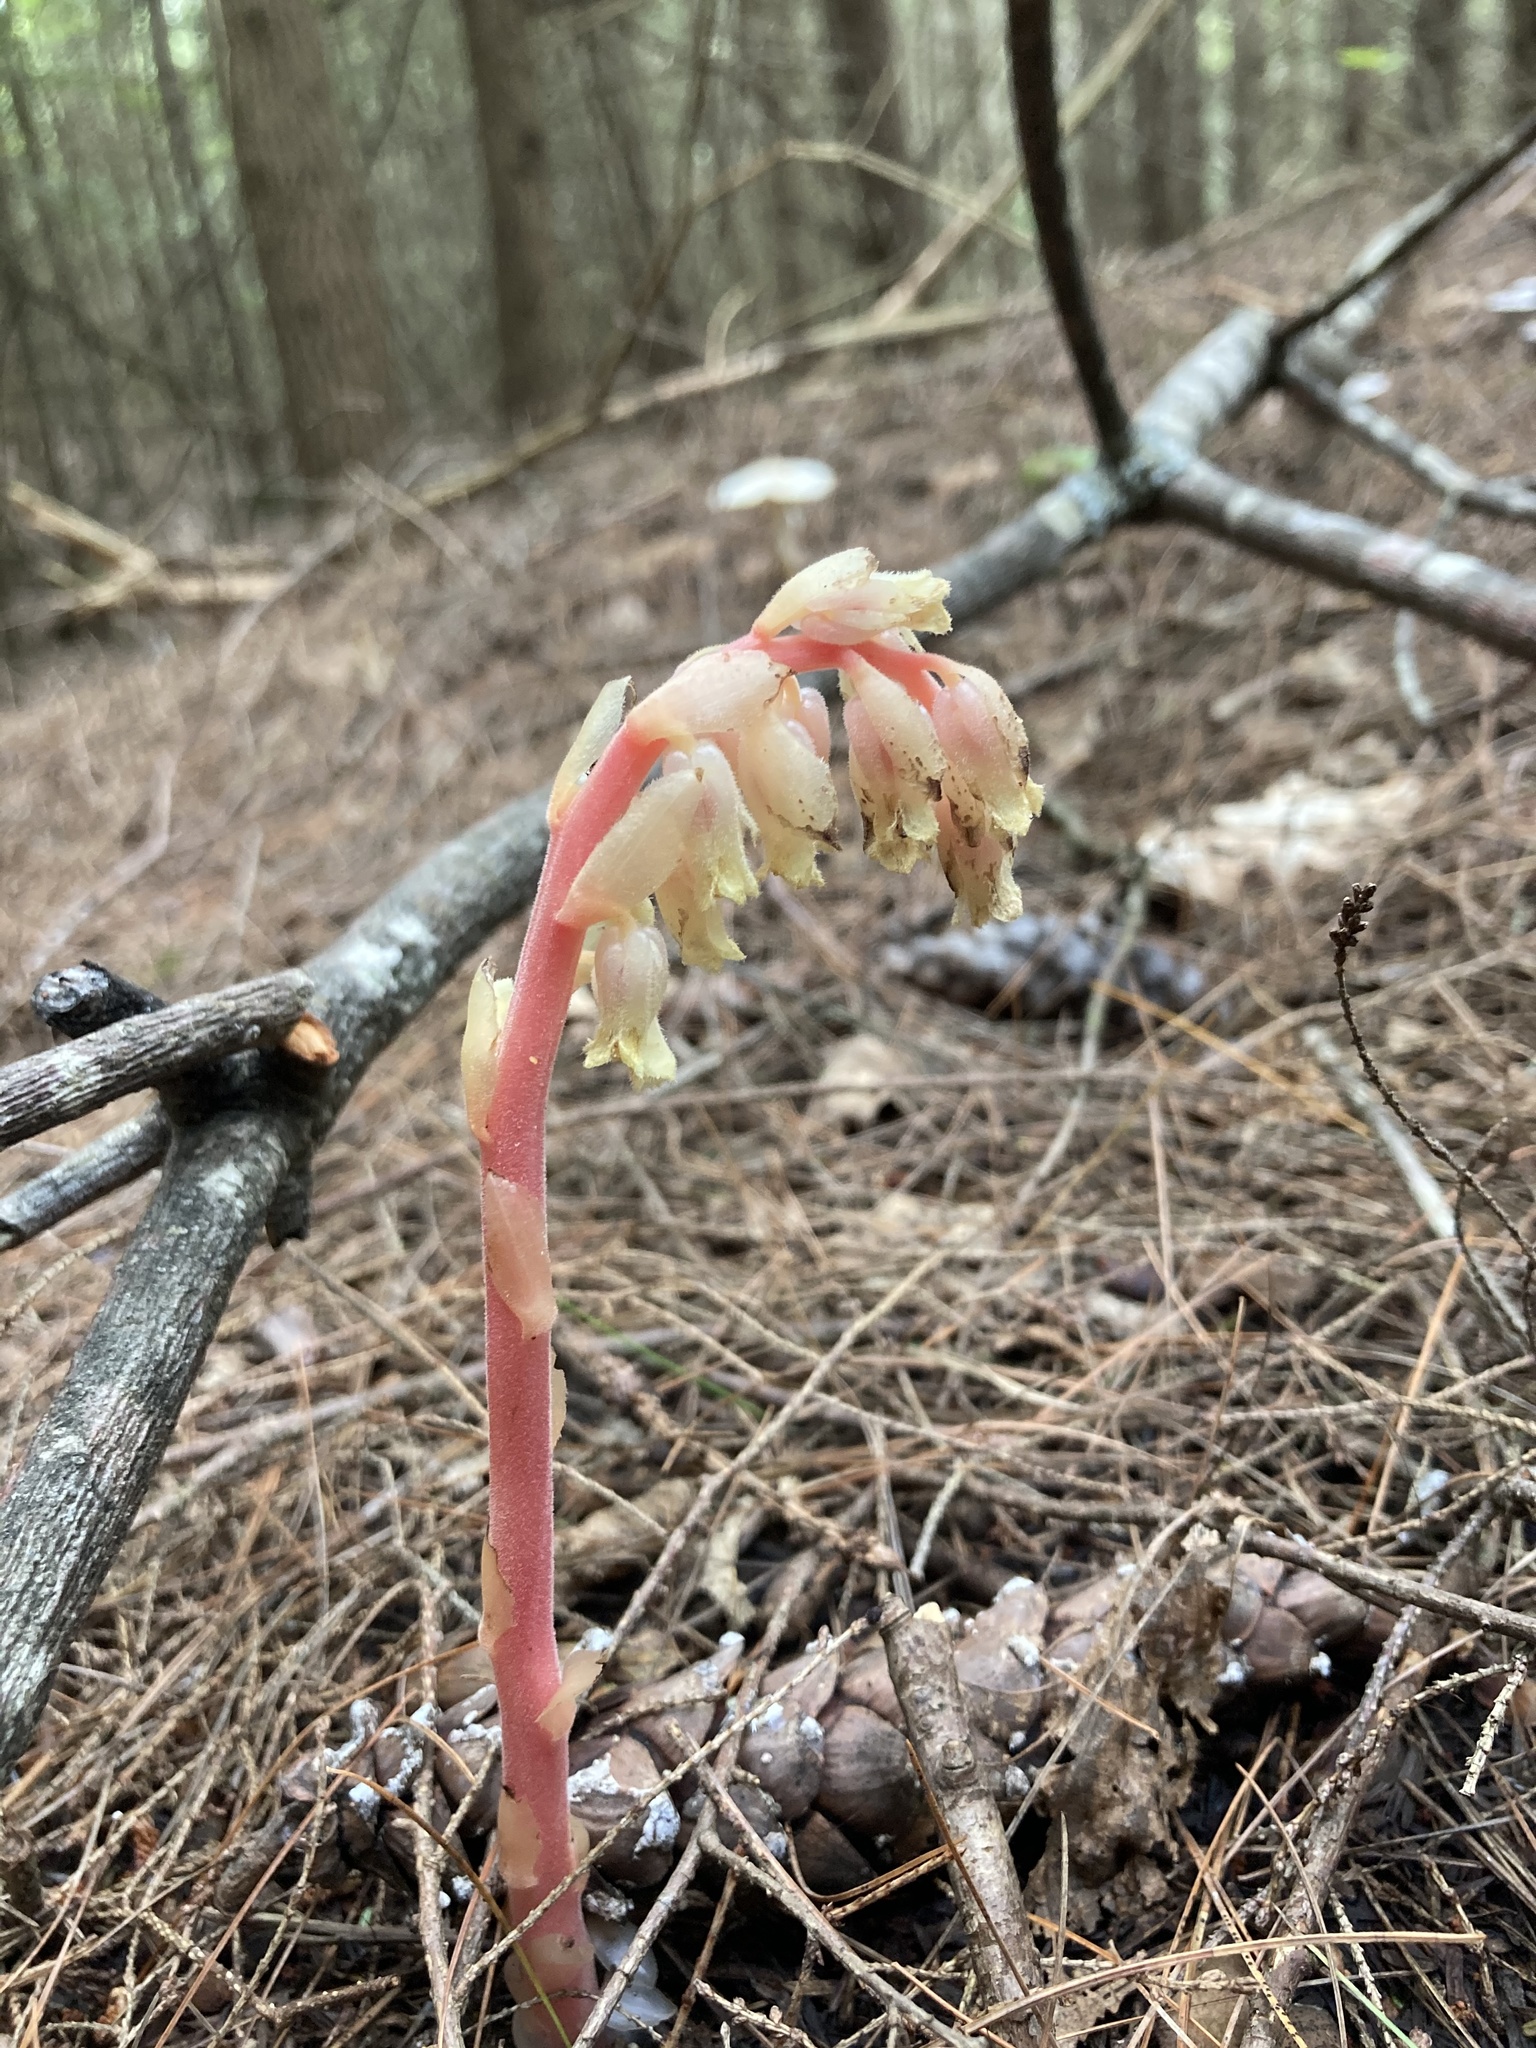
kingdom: Plantae
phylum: Tracheophyta
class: Magnoliopsida
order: Ericales
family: Ericaceae
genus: Hypopitys
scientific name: Hypopitys monotropa
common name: Yellow bird's-nest
